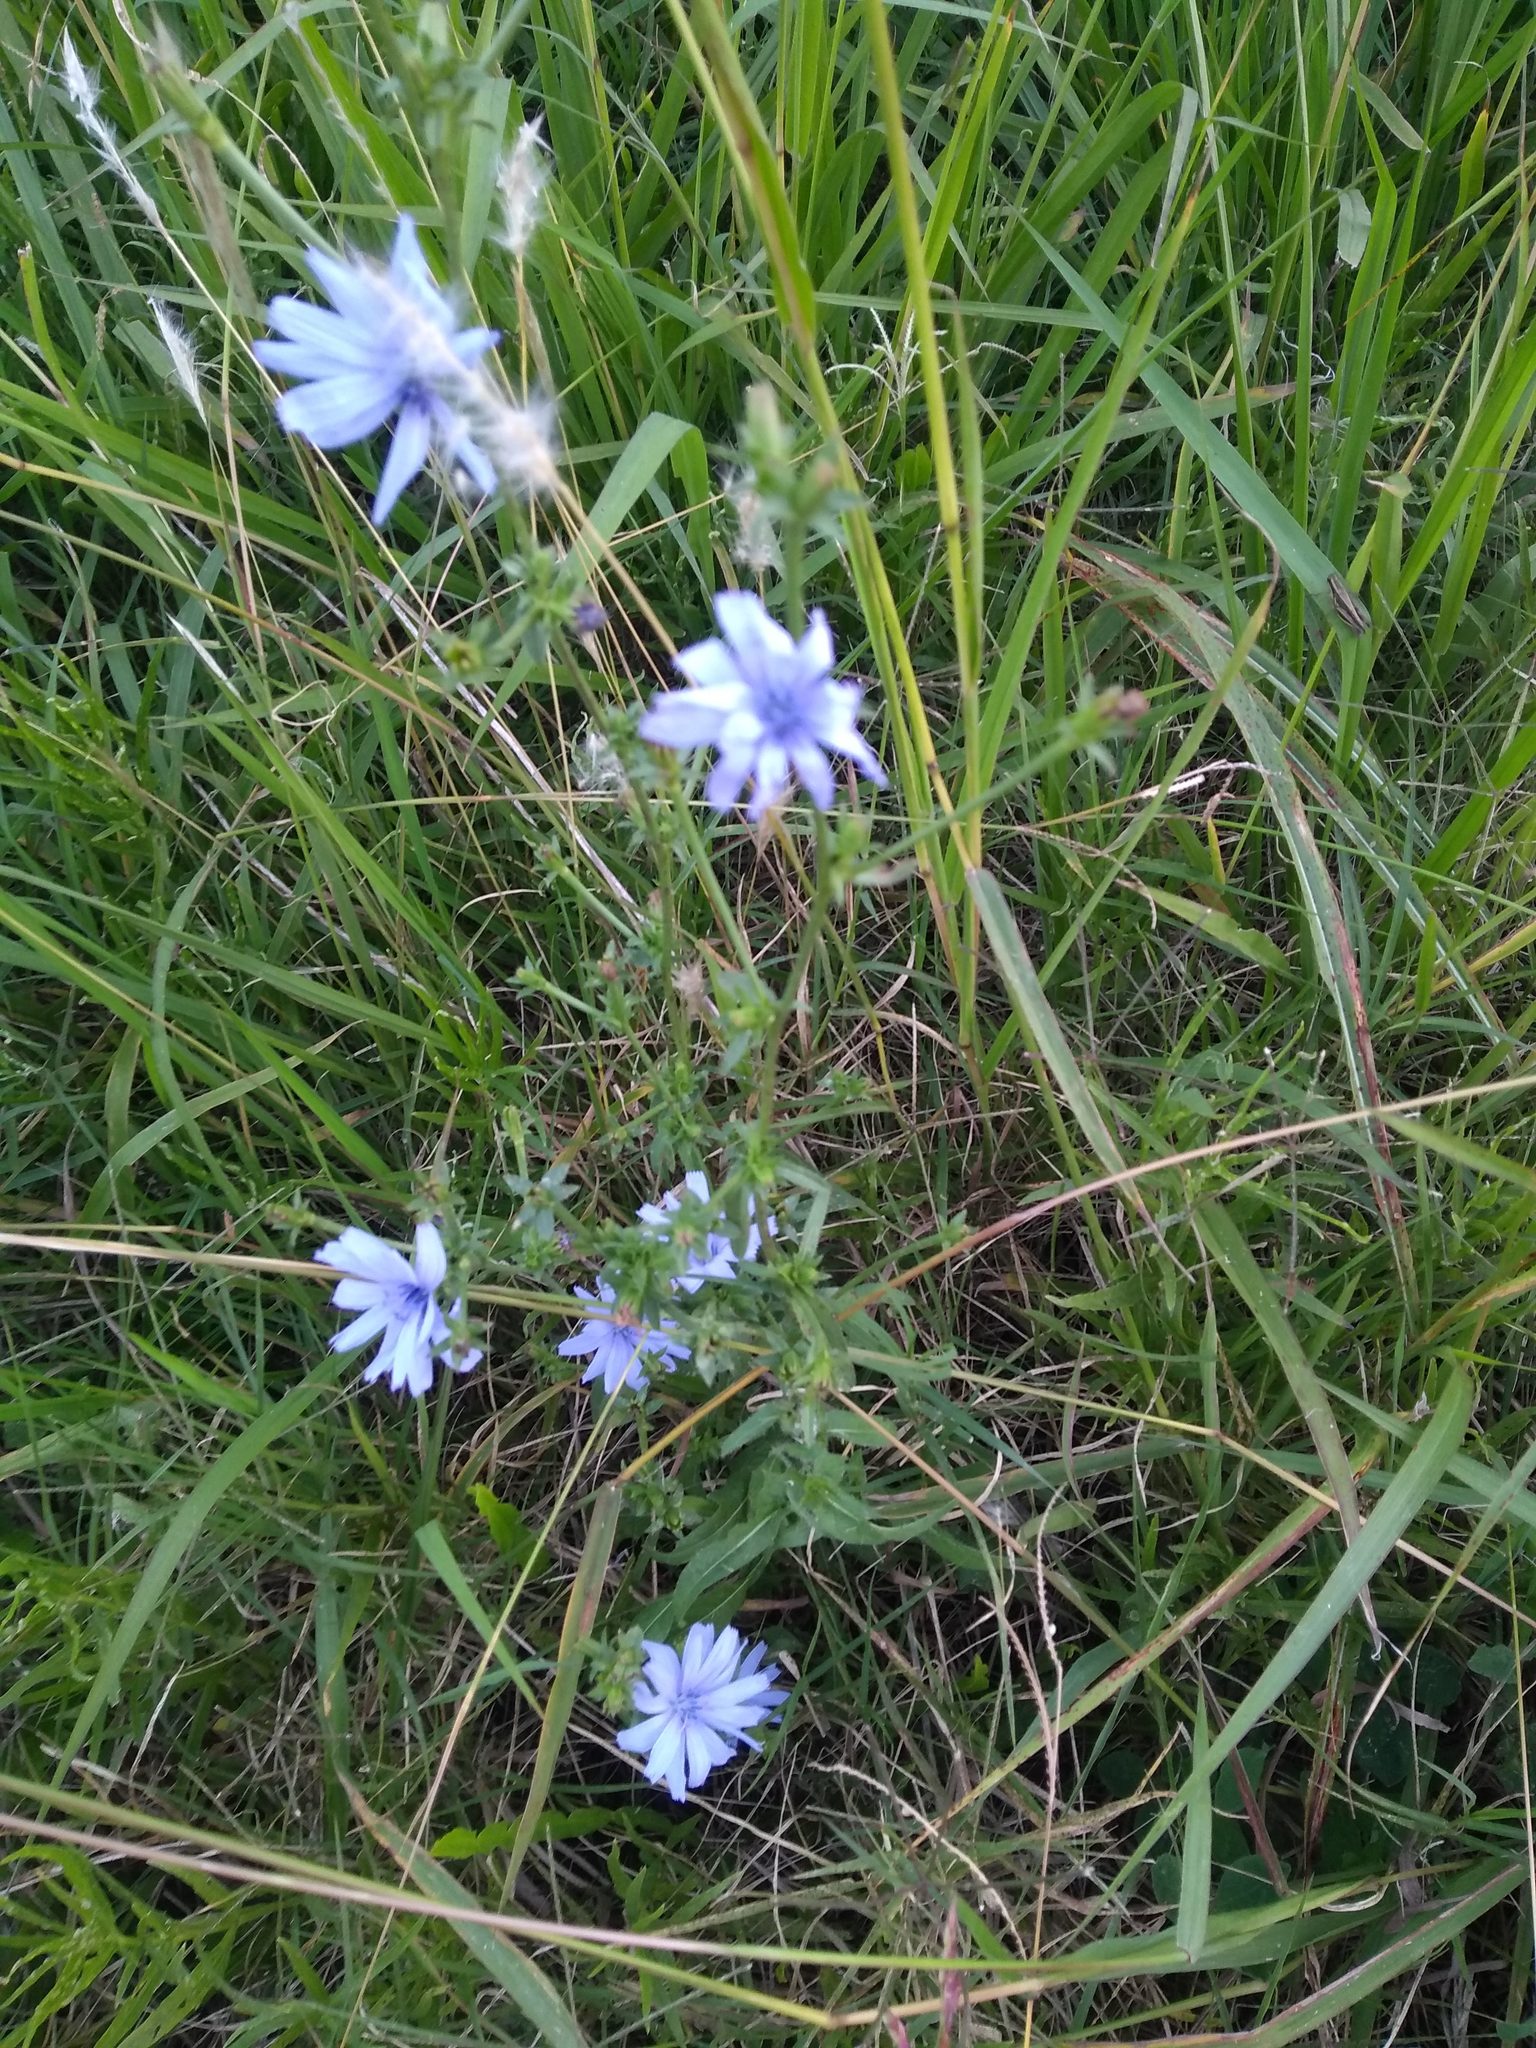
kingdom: Plantae
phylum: Tracheophyta
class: Magnoliopsida
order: Asterales
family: Asteraceae
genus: Cichorium
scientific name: Cichorium intybus
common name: Chicory
